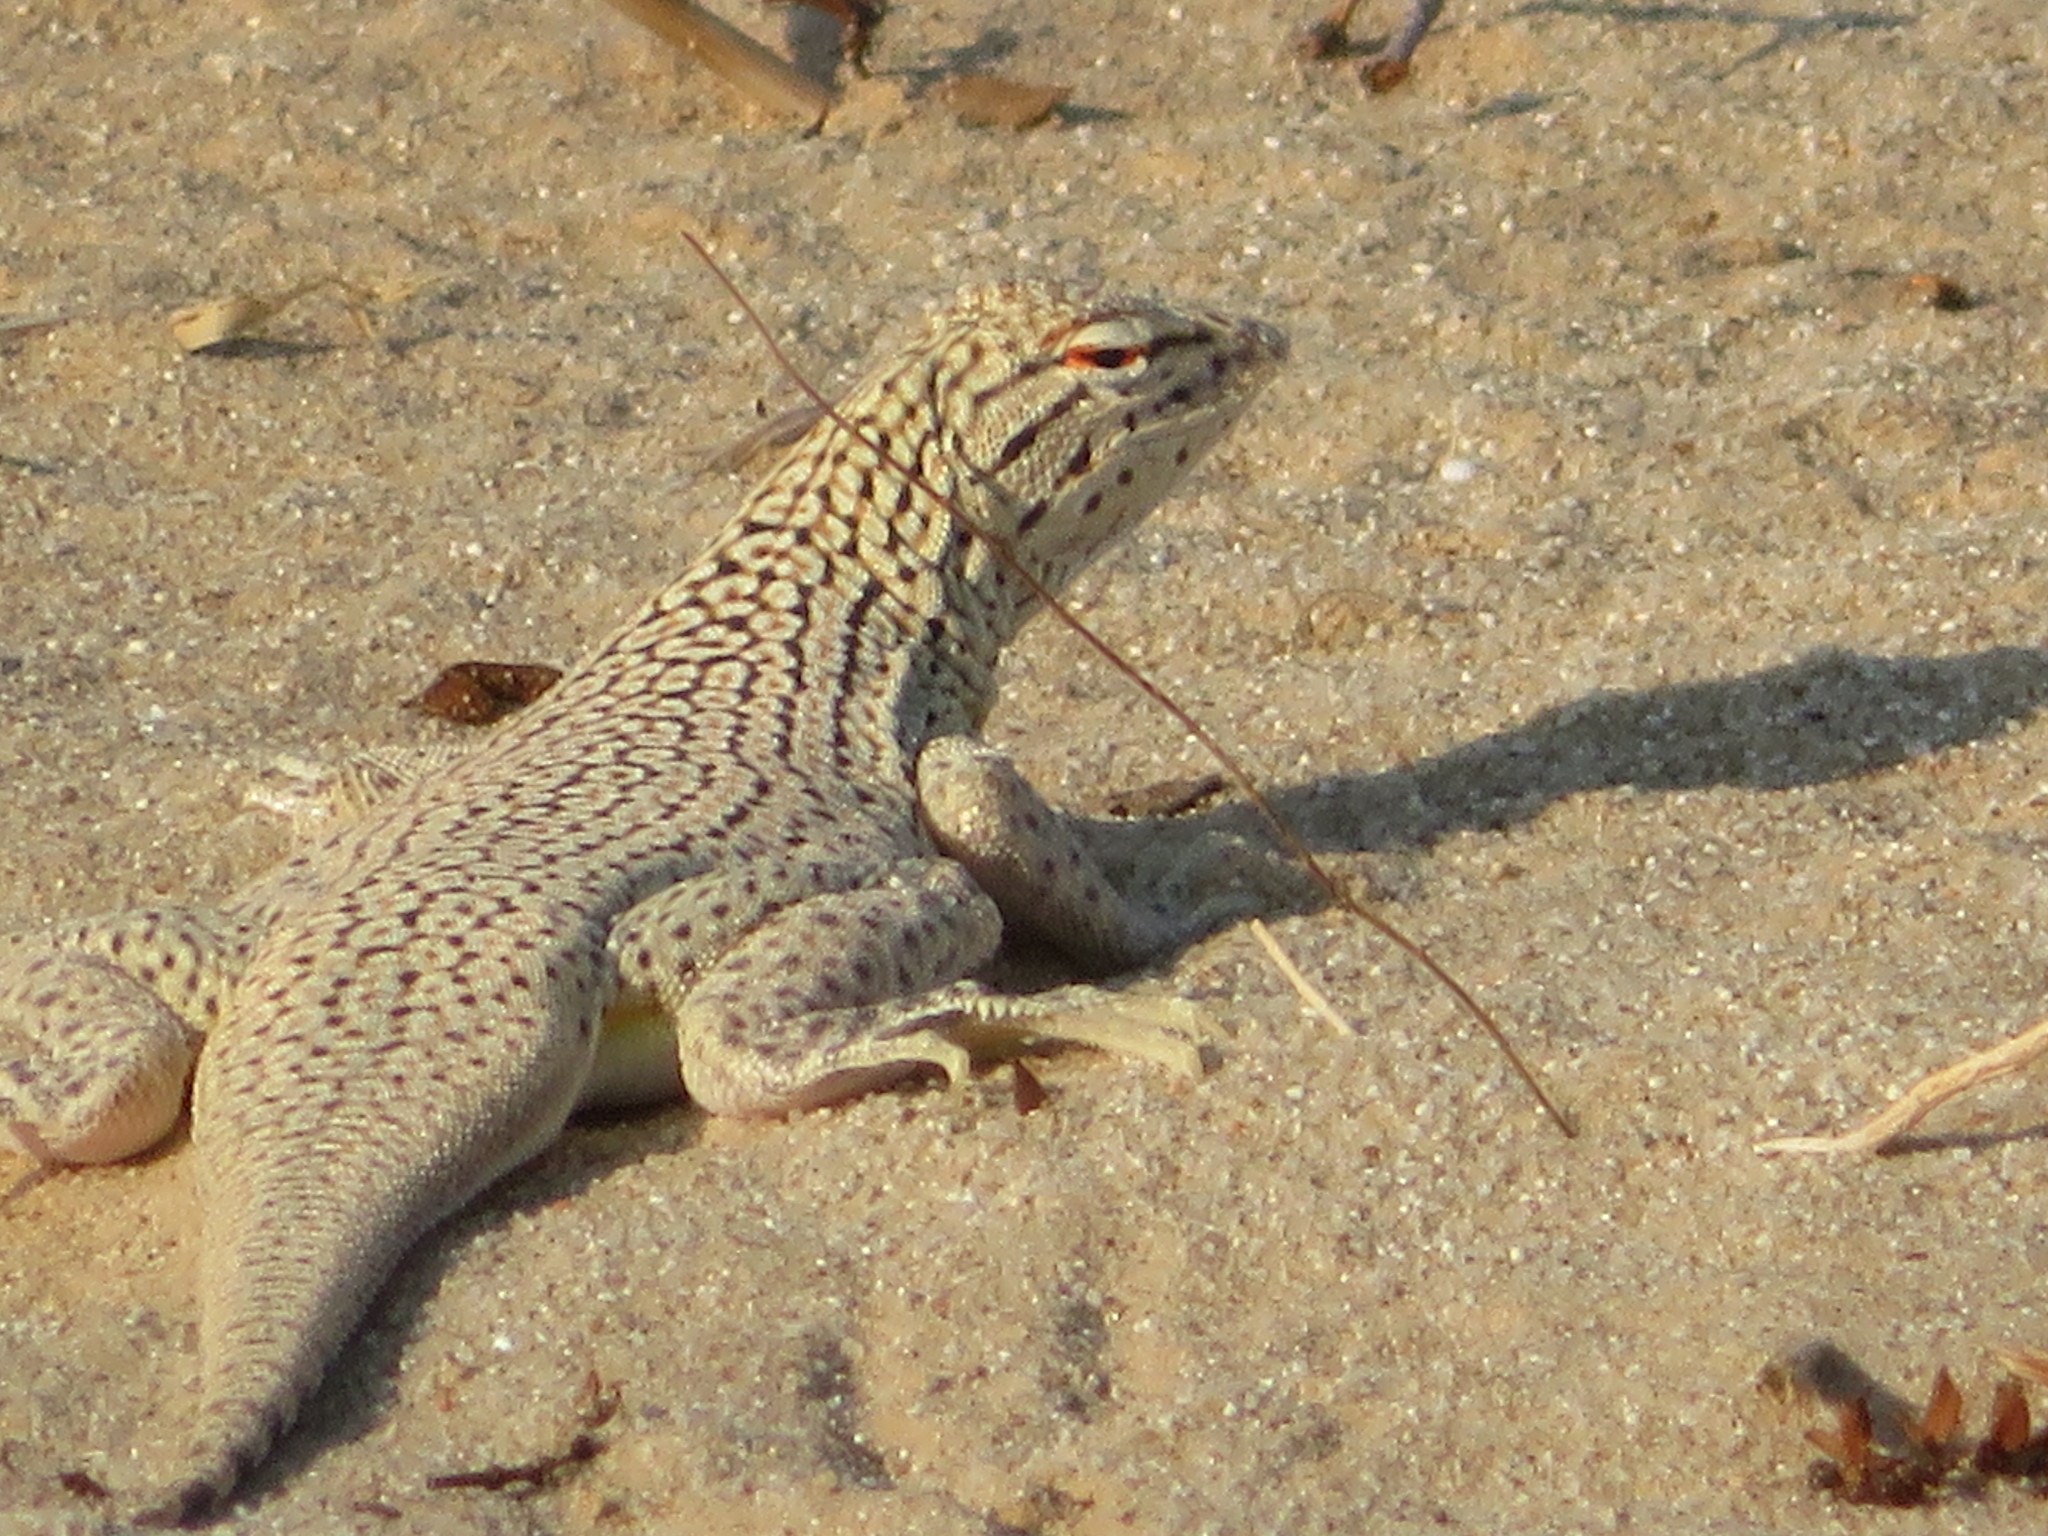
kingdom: Animalia
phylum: Chordata
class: Squamata
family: Phrynosomatidae
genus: Uma
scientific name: Uma notata
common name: Colorado desert fringe-toed lizard
